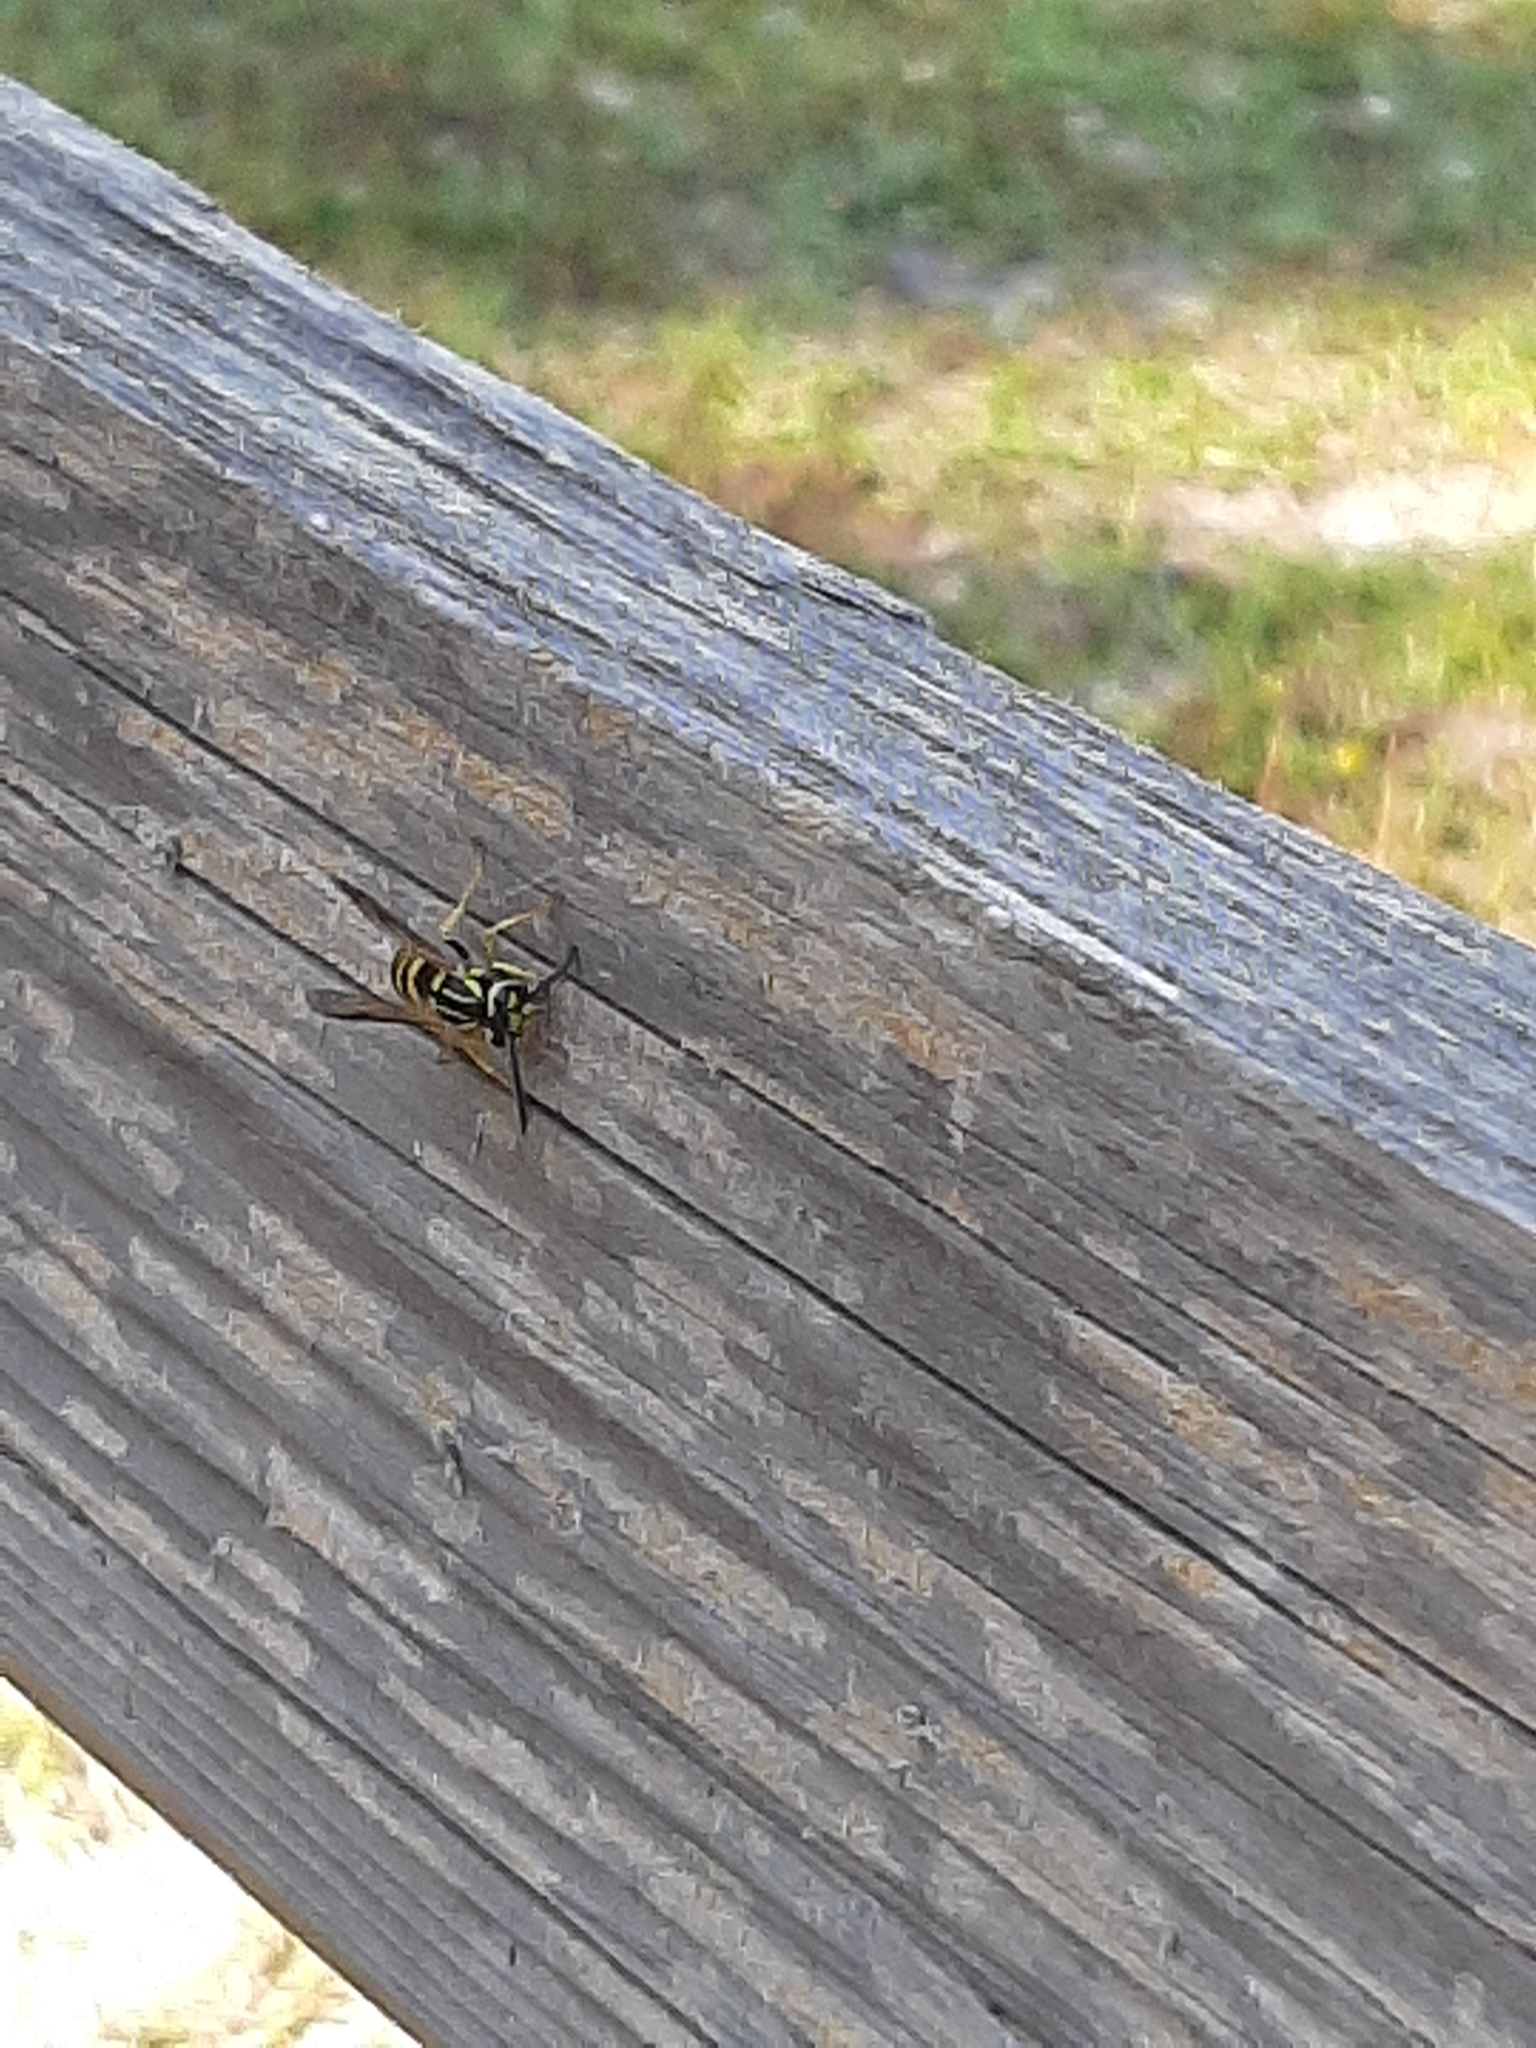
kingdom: Animalia
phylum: Arthropoda
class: Insecta
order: Hymenoptera
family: Vespidae
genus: Vespula
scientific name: Vespula squamosa
